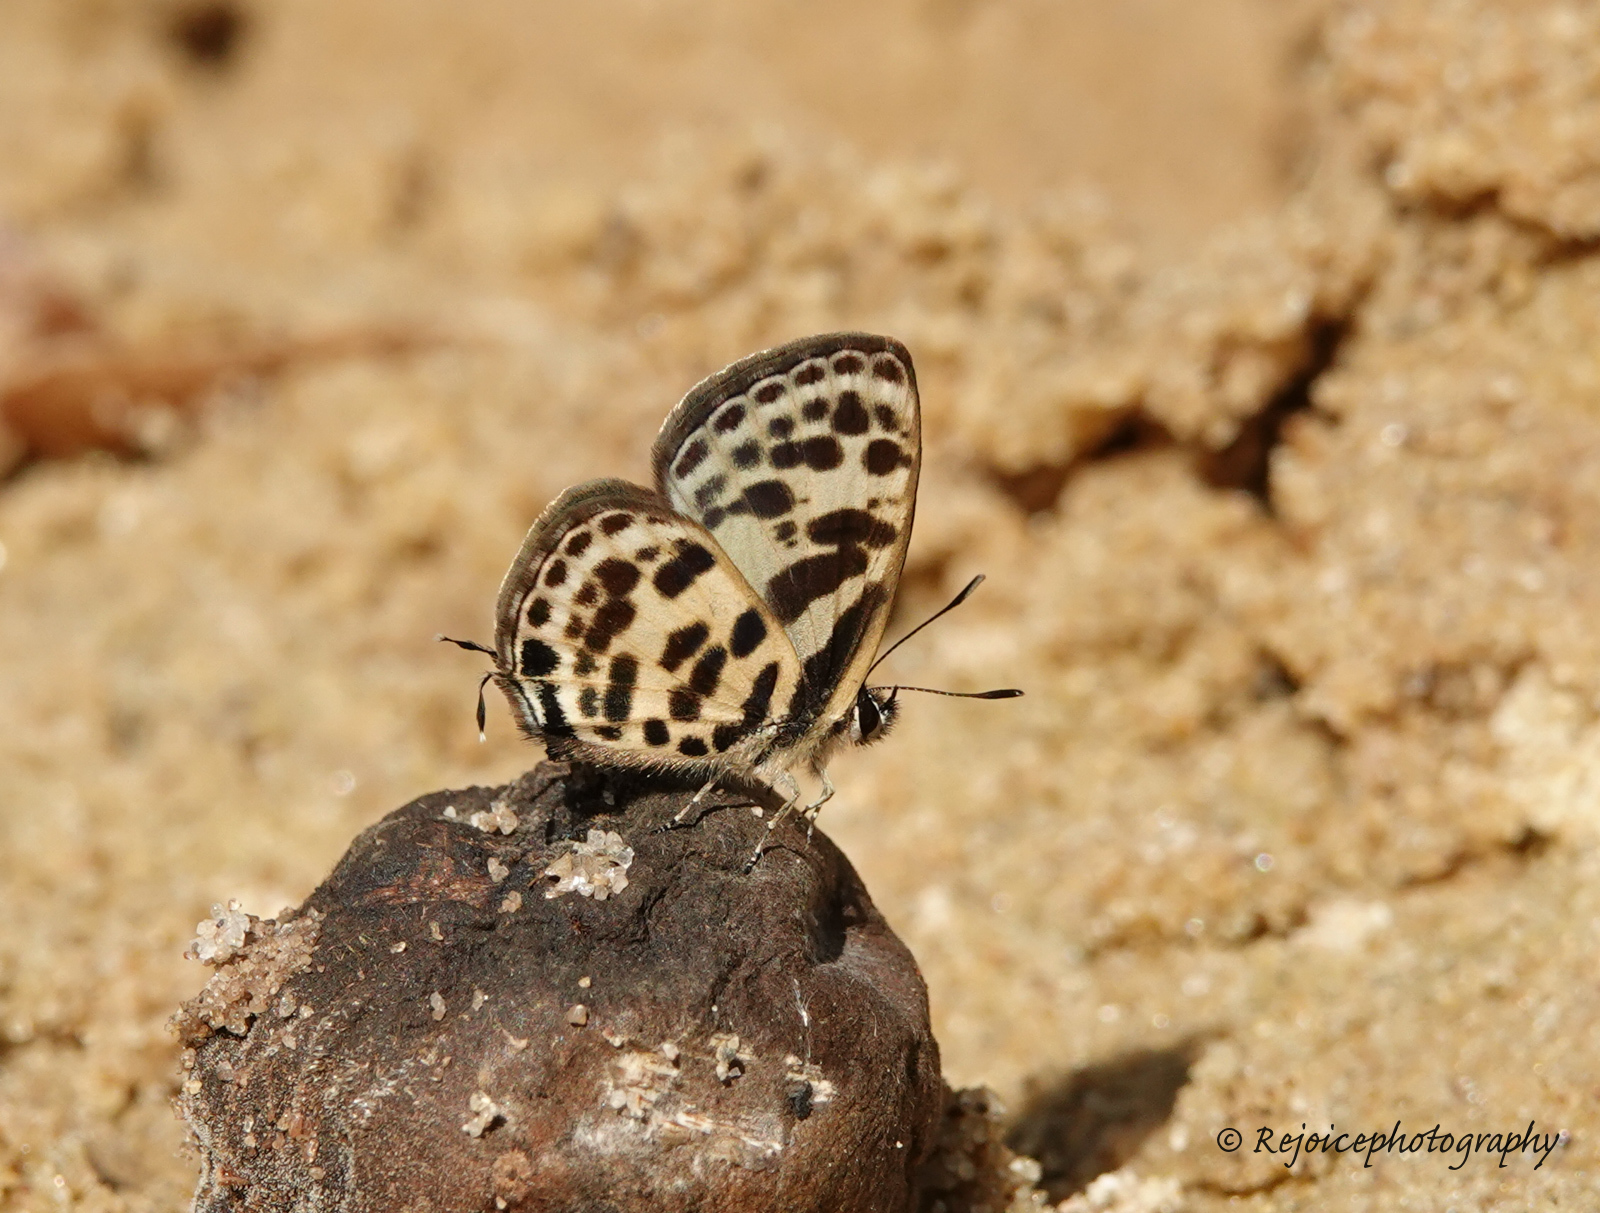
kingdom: Animalia
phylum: Arthropoda
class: Insecta
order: Lepidoptera
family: Lycaenidae
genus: Tarucus
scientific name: Tarucus
